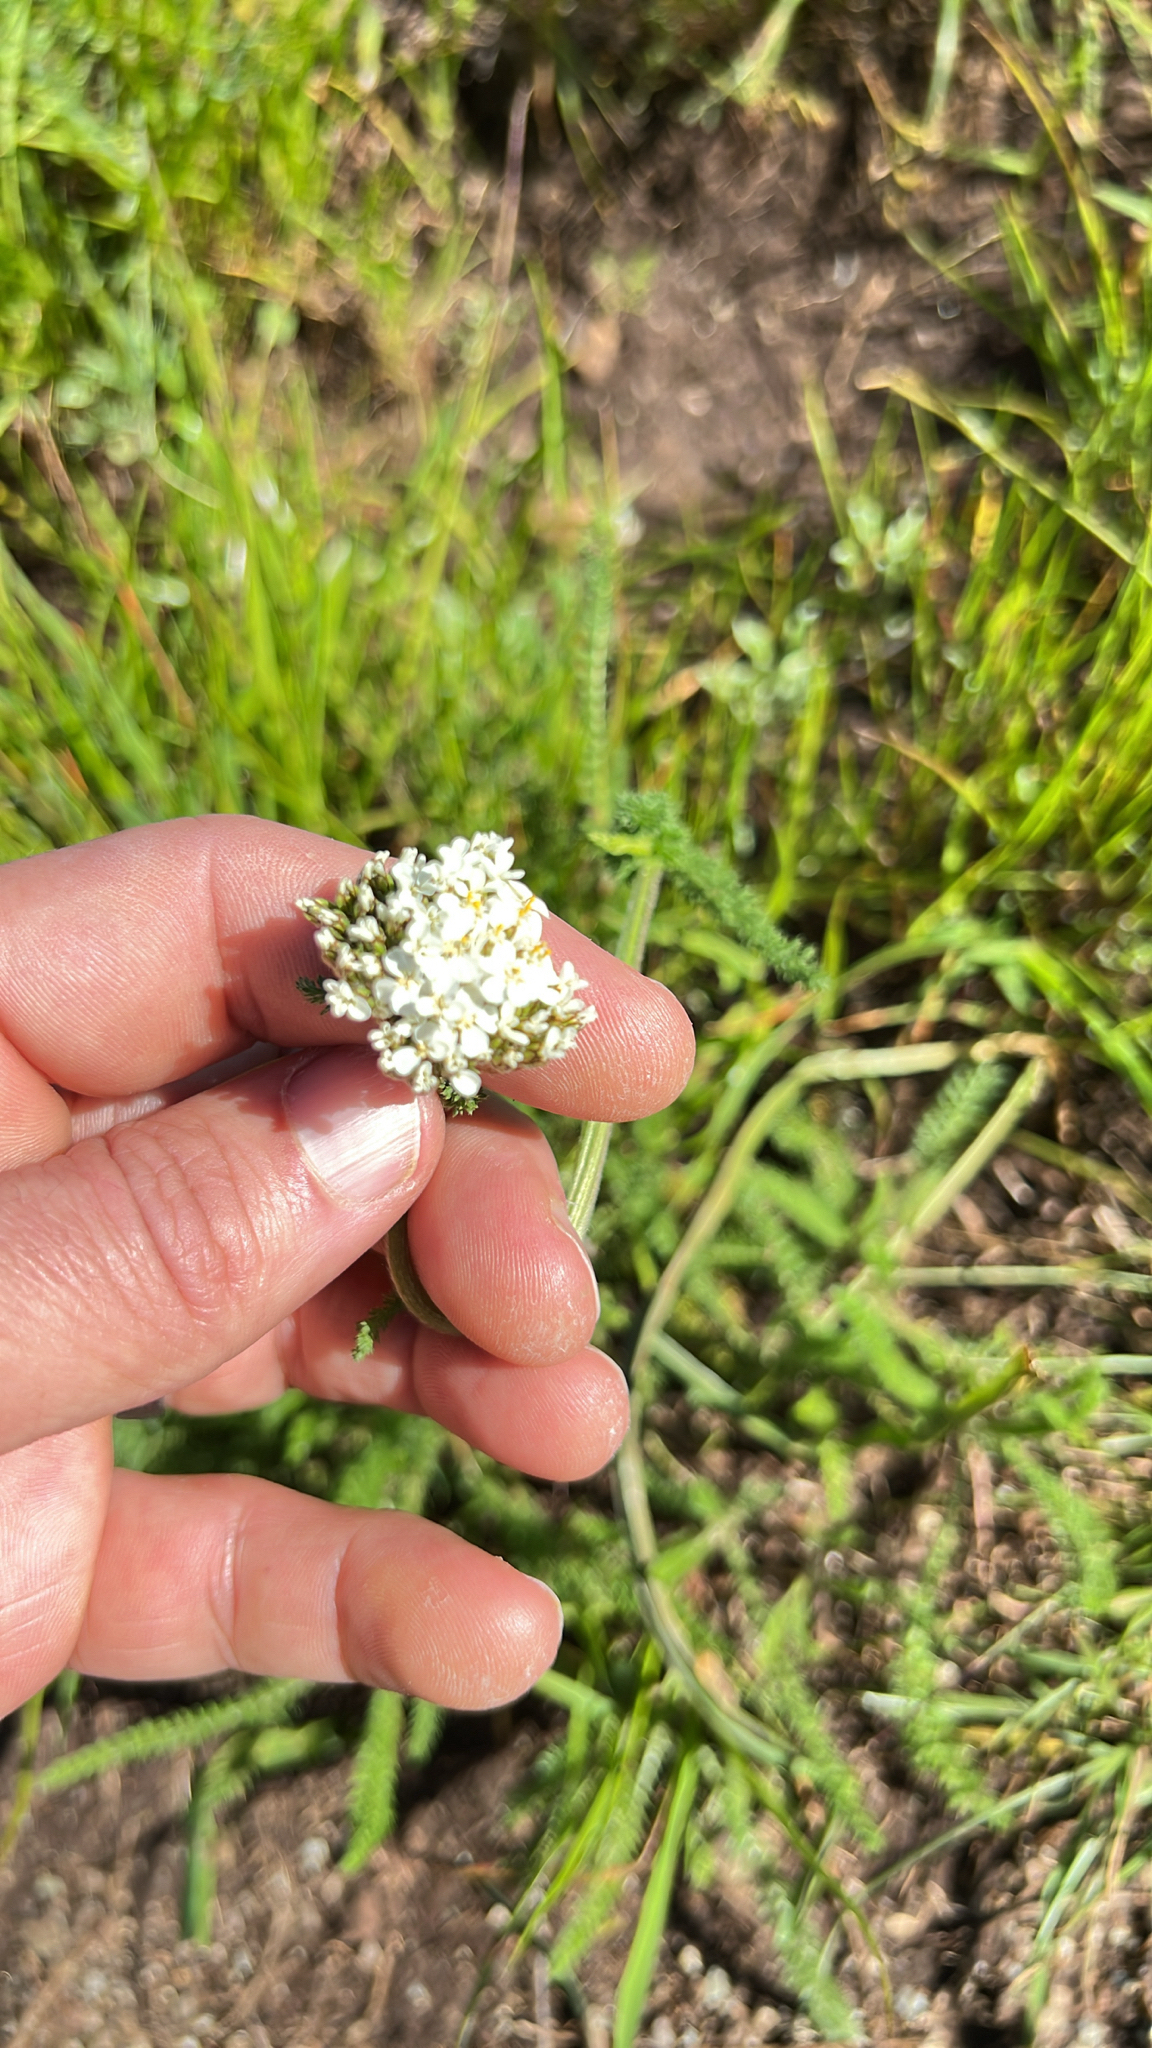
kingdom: Plantae
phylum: Tracheophyta
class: Magnoliopsida
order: Asterales
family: Asteraceae
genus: Achillea
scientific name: Achillea millefolium
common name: Yarrow
